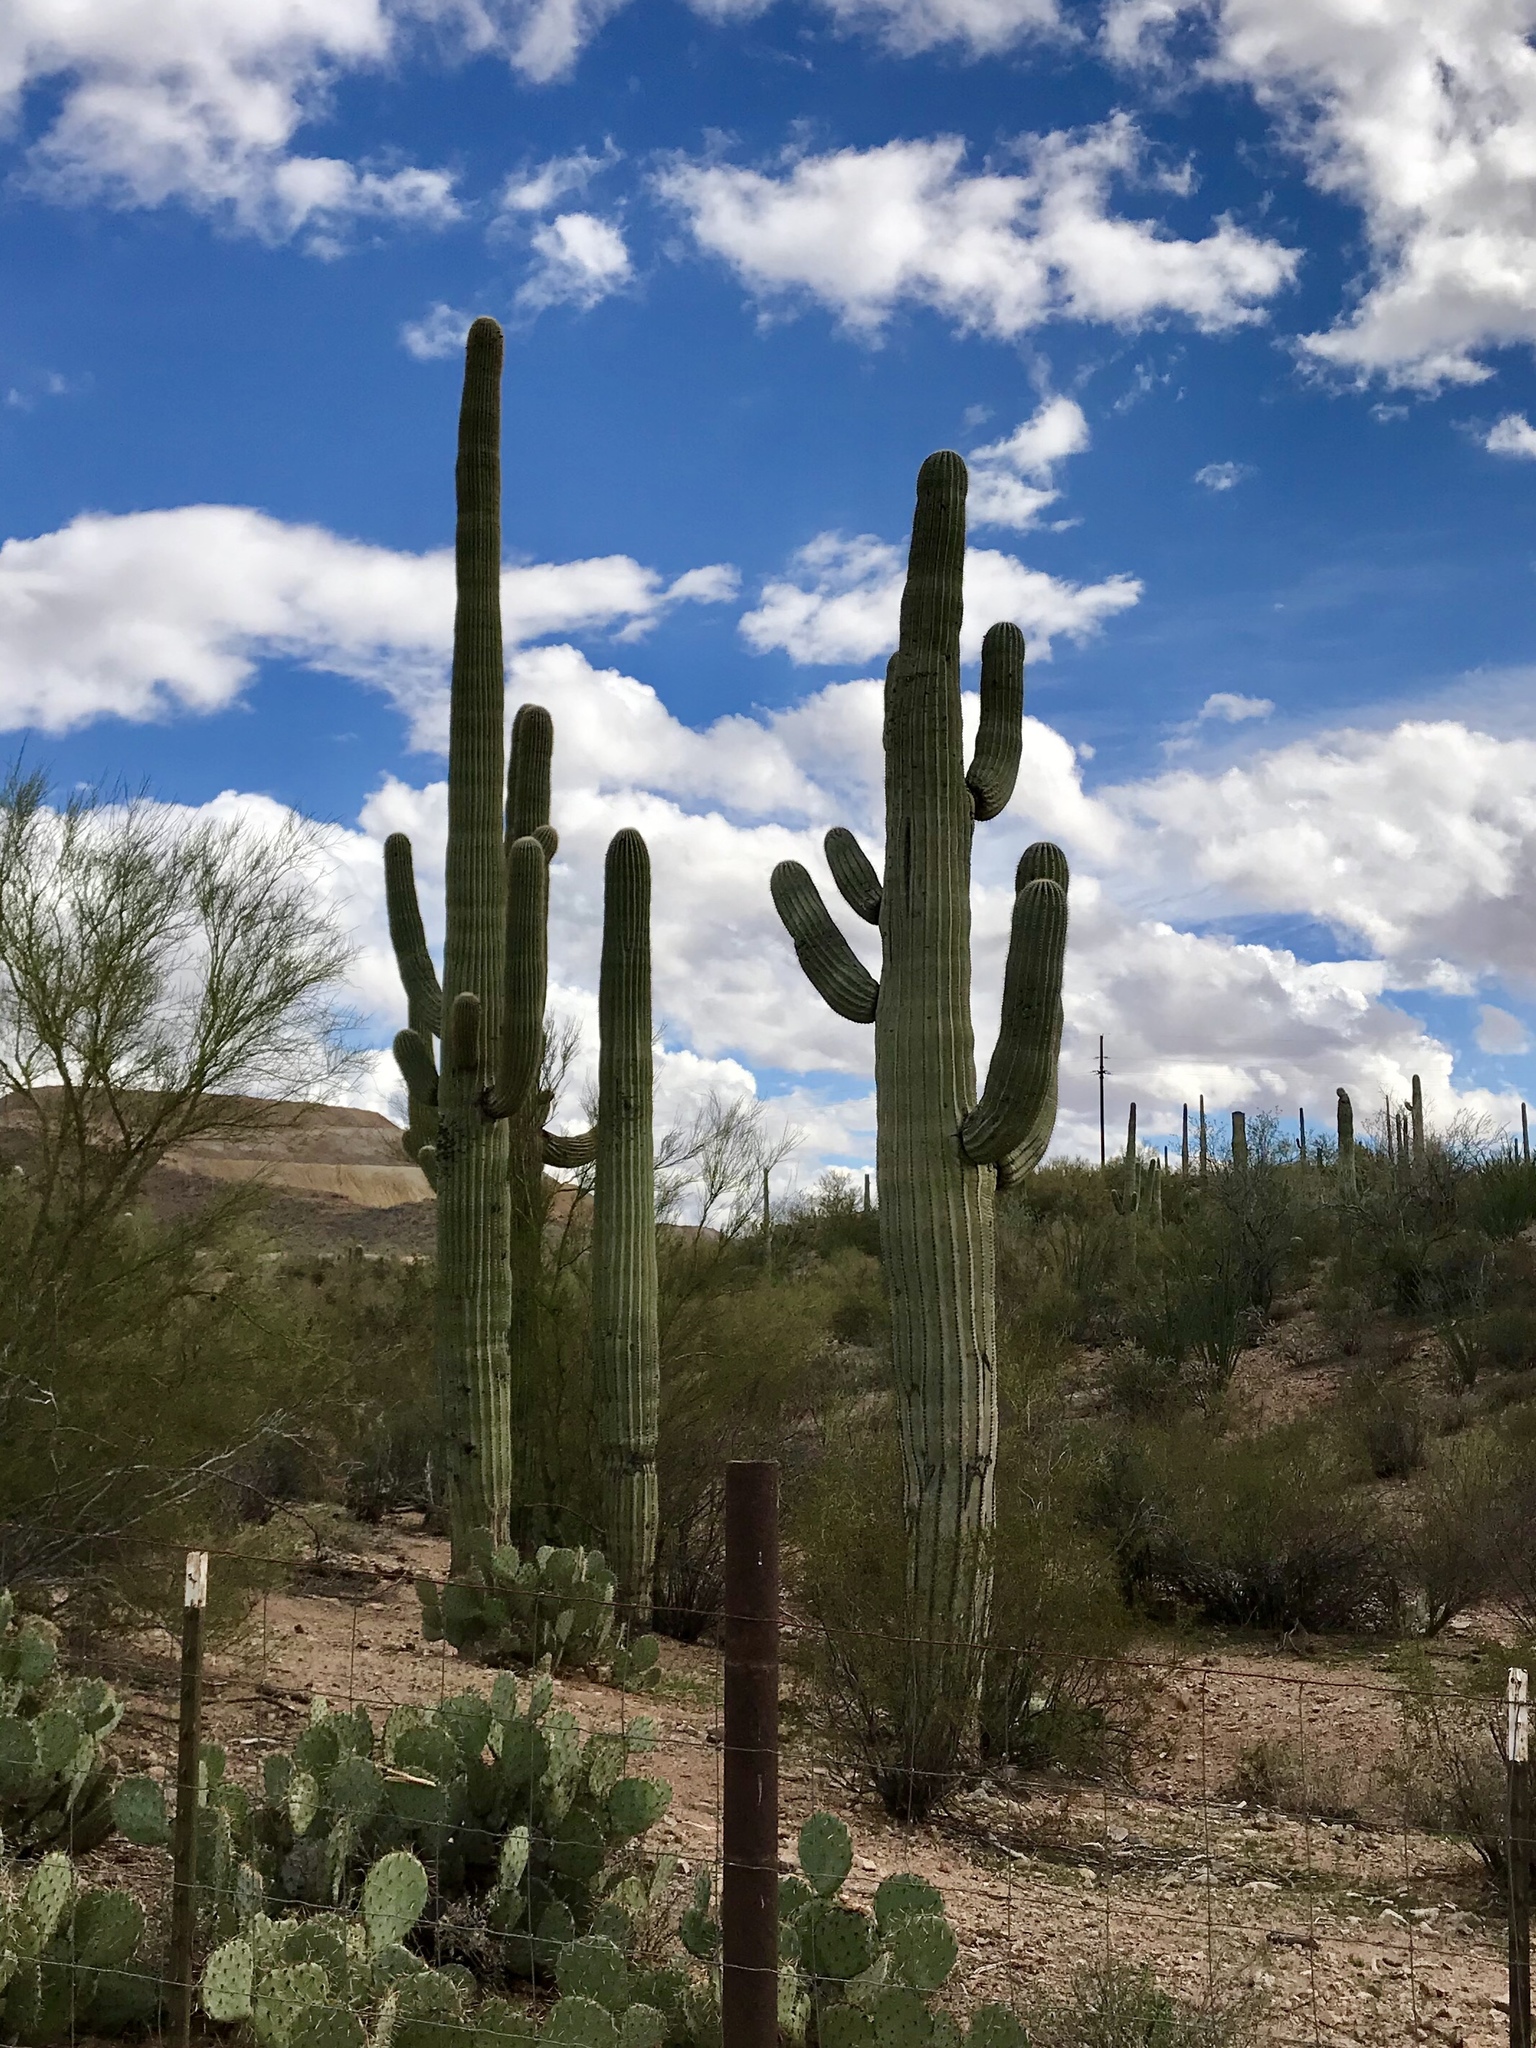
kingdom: Plantae
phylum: Tracheophyta
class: Magnoliopsida
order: Caryophyllales
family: Cactaceae
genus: Carnegiea
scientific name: Carnegiea gigantea
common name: Saguaro
